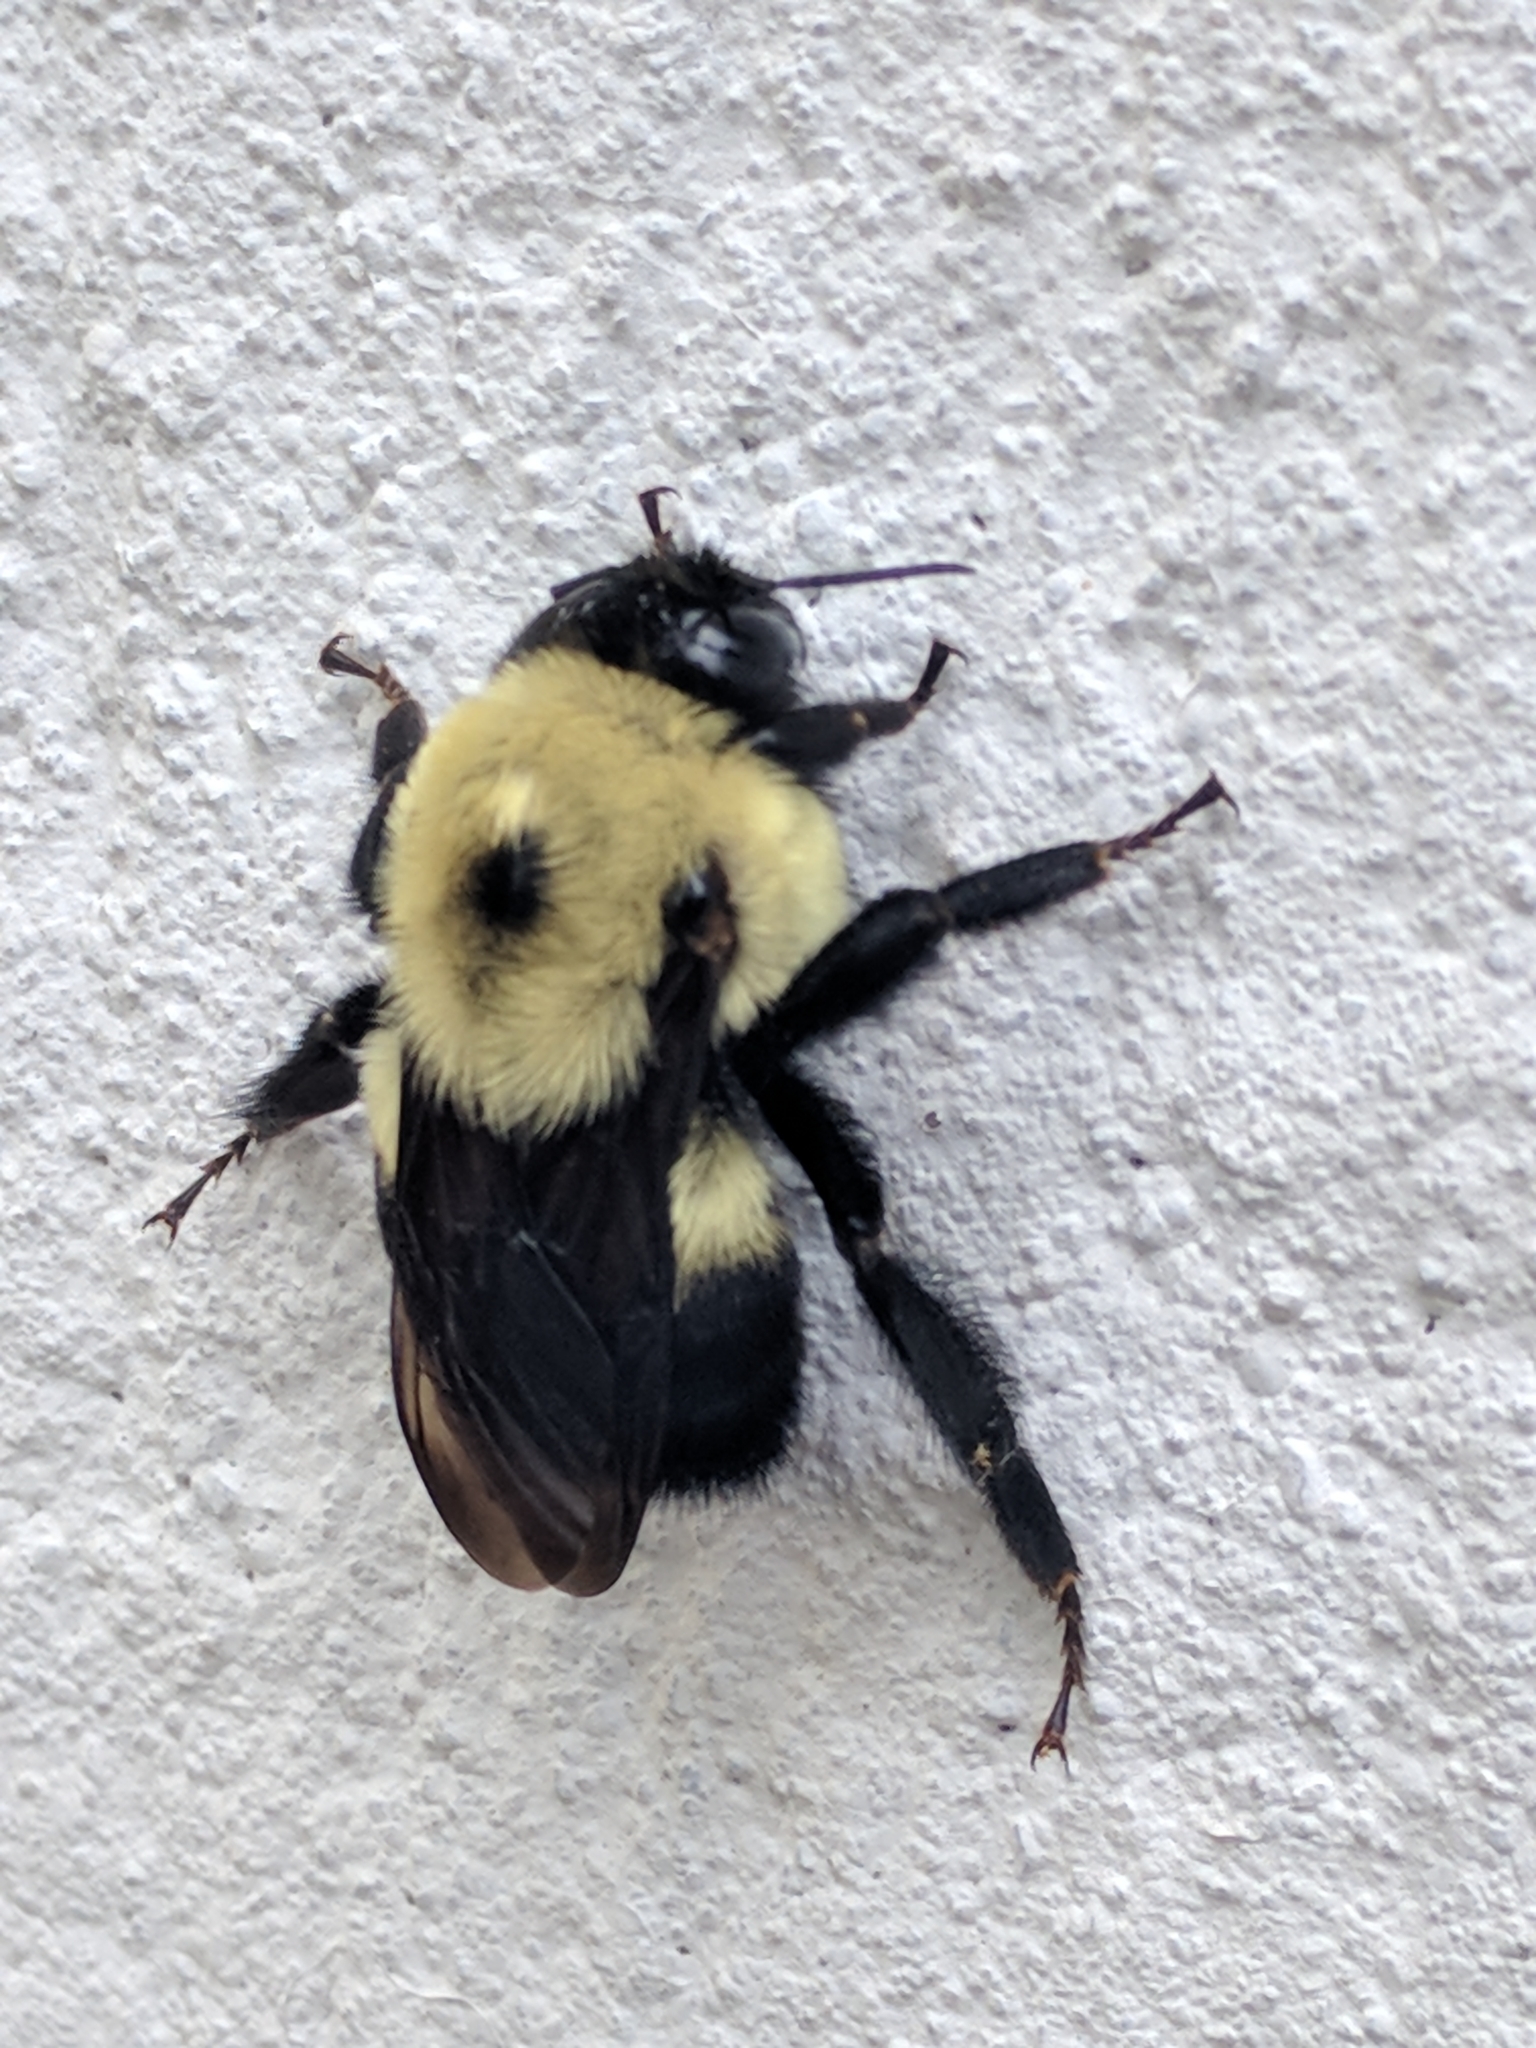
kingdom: Animalia
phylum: Arthropoda
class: Insecta
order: Hymenoptera
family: Apidae
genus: Bombus
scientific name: Bombus griseocollis
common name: Brown-belted bumble bee
